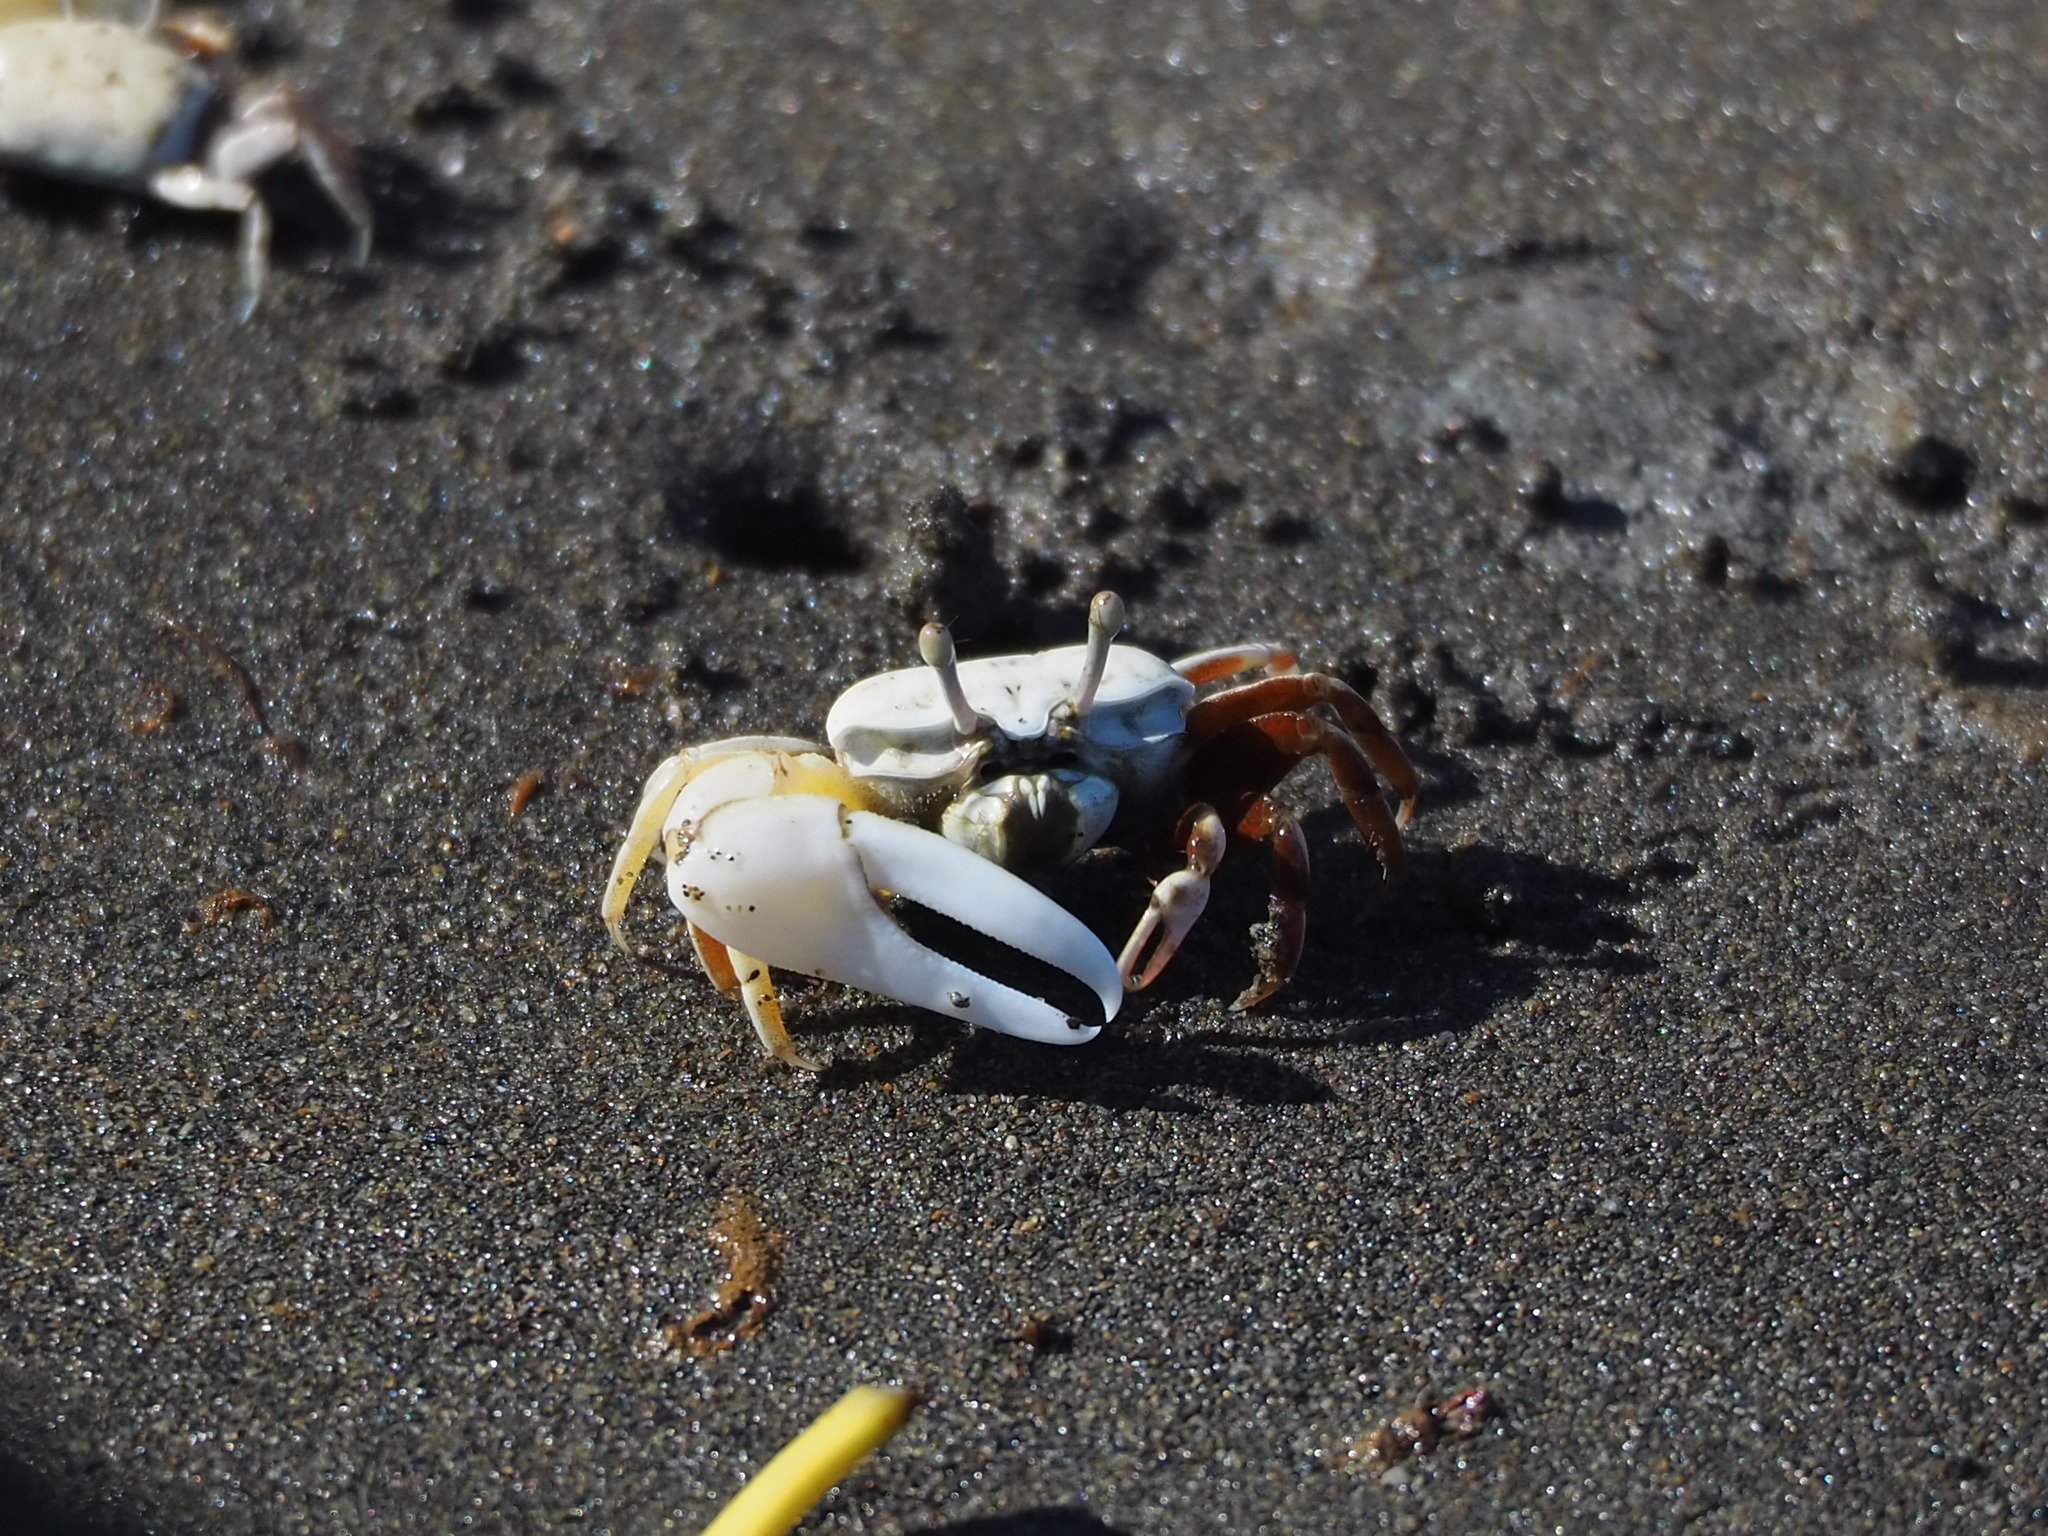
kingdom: Animalia
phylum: Arthropoda
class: Malacostraca
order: Decapoda
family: Ocypodidae
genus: Austruca
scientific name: Austruca lactea
